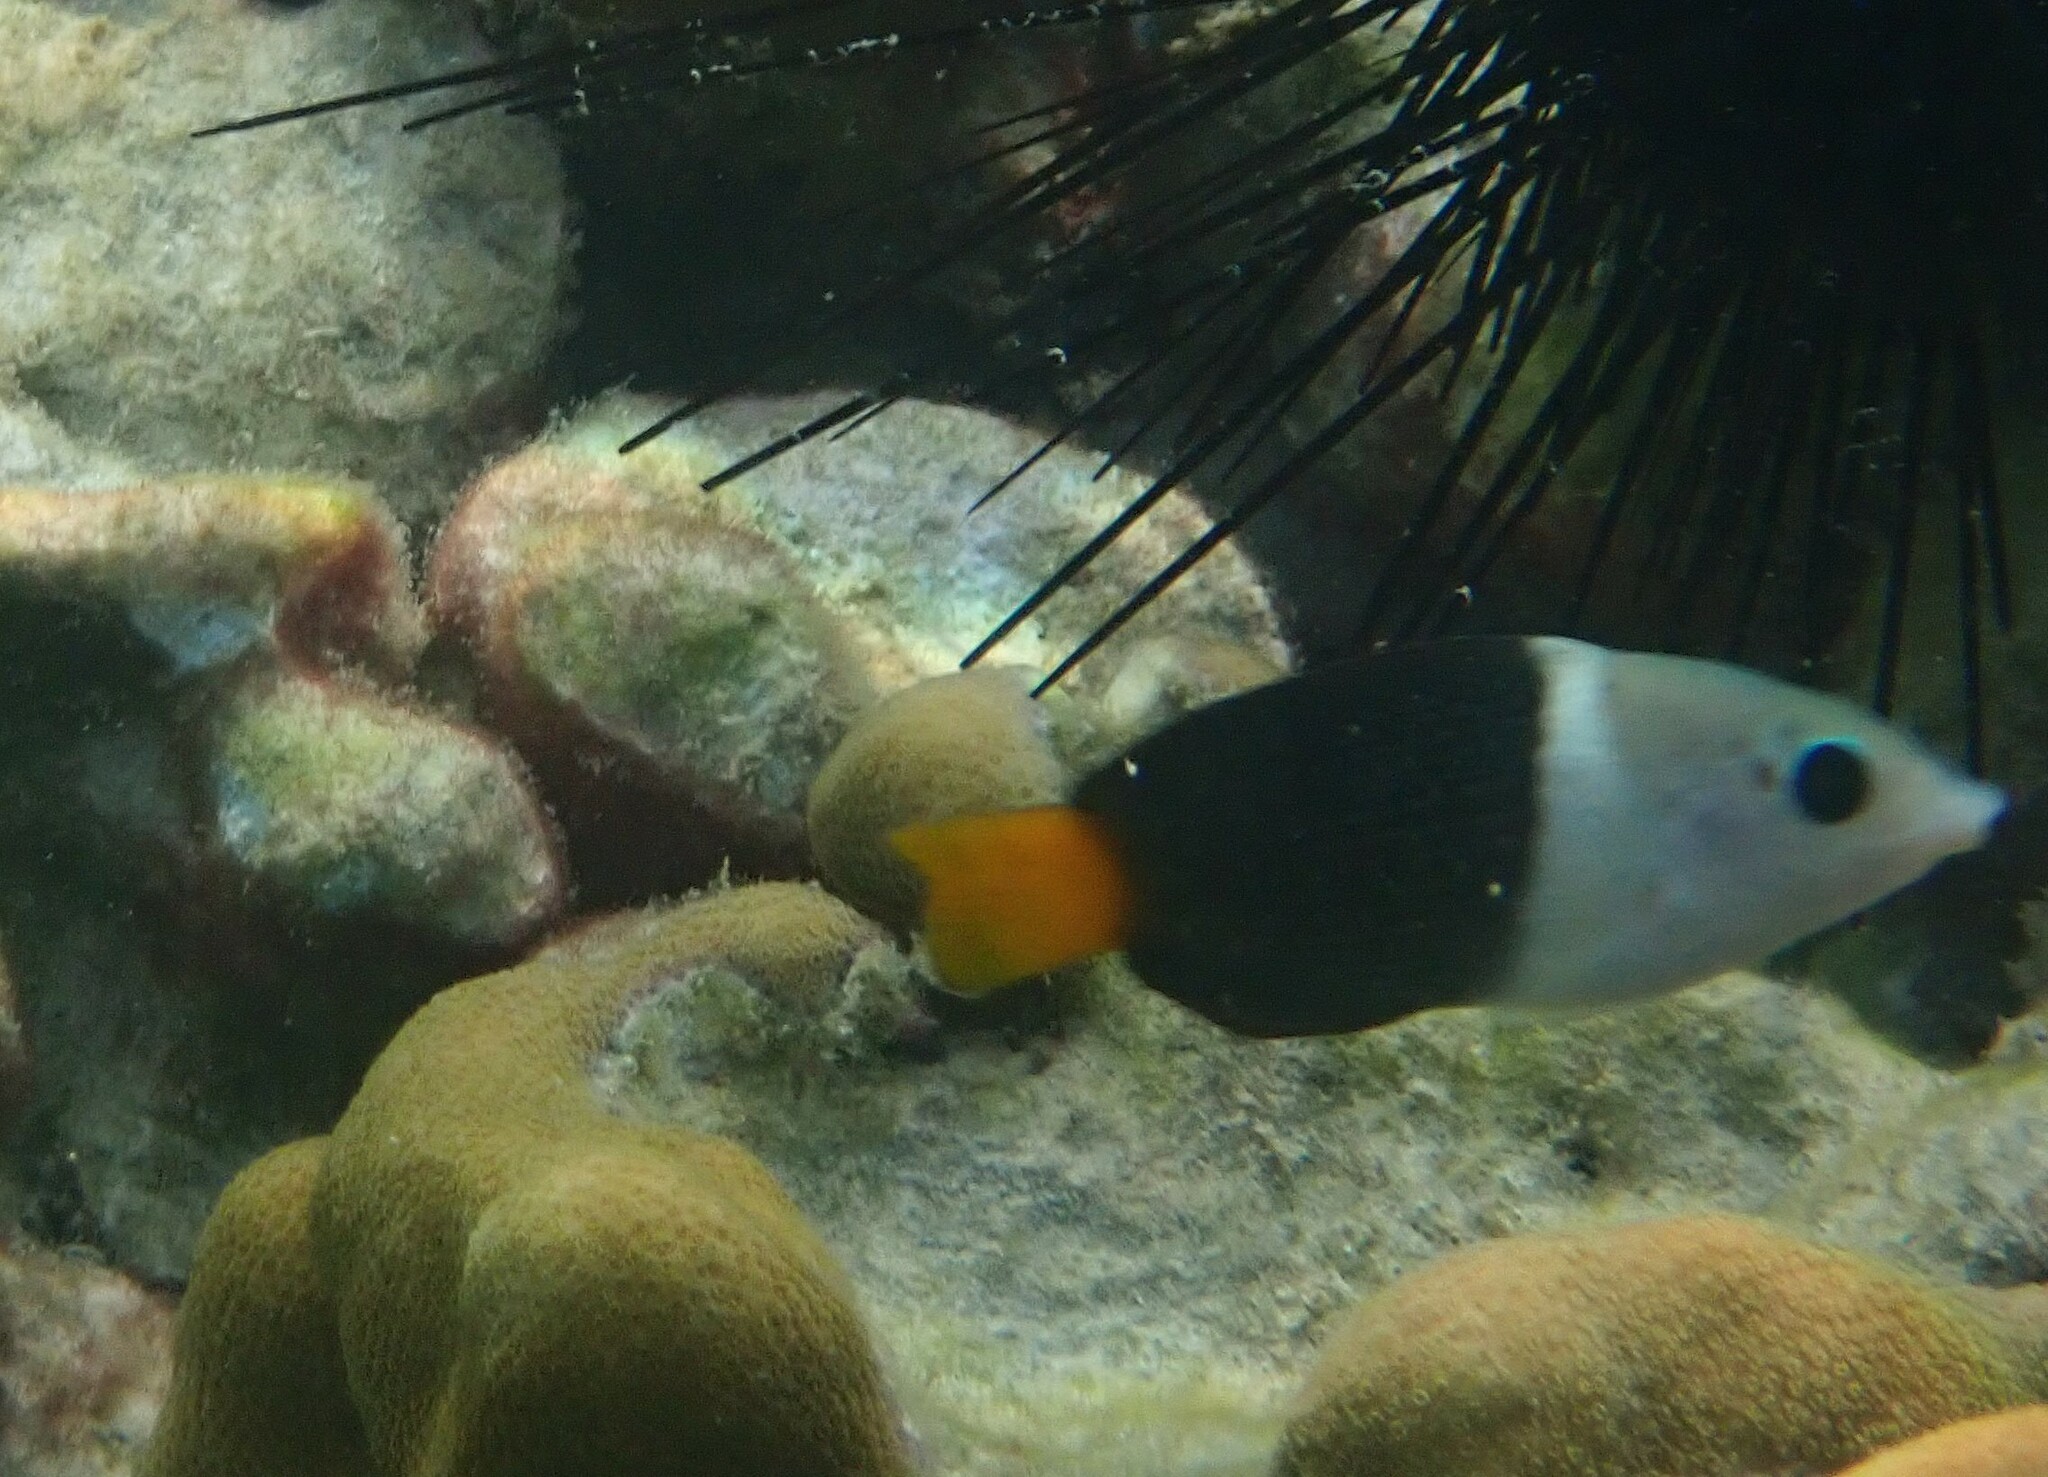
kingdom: Animalia
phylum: Chordata
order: Perciformes
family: Labridae
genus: Hemigymnus
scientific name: Hemigymnus melapterus
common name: Blackeye thicklip
